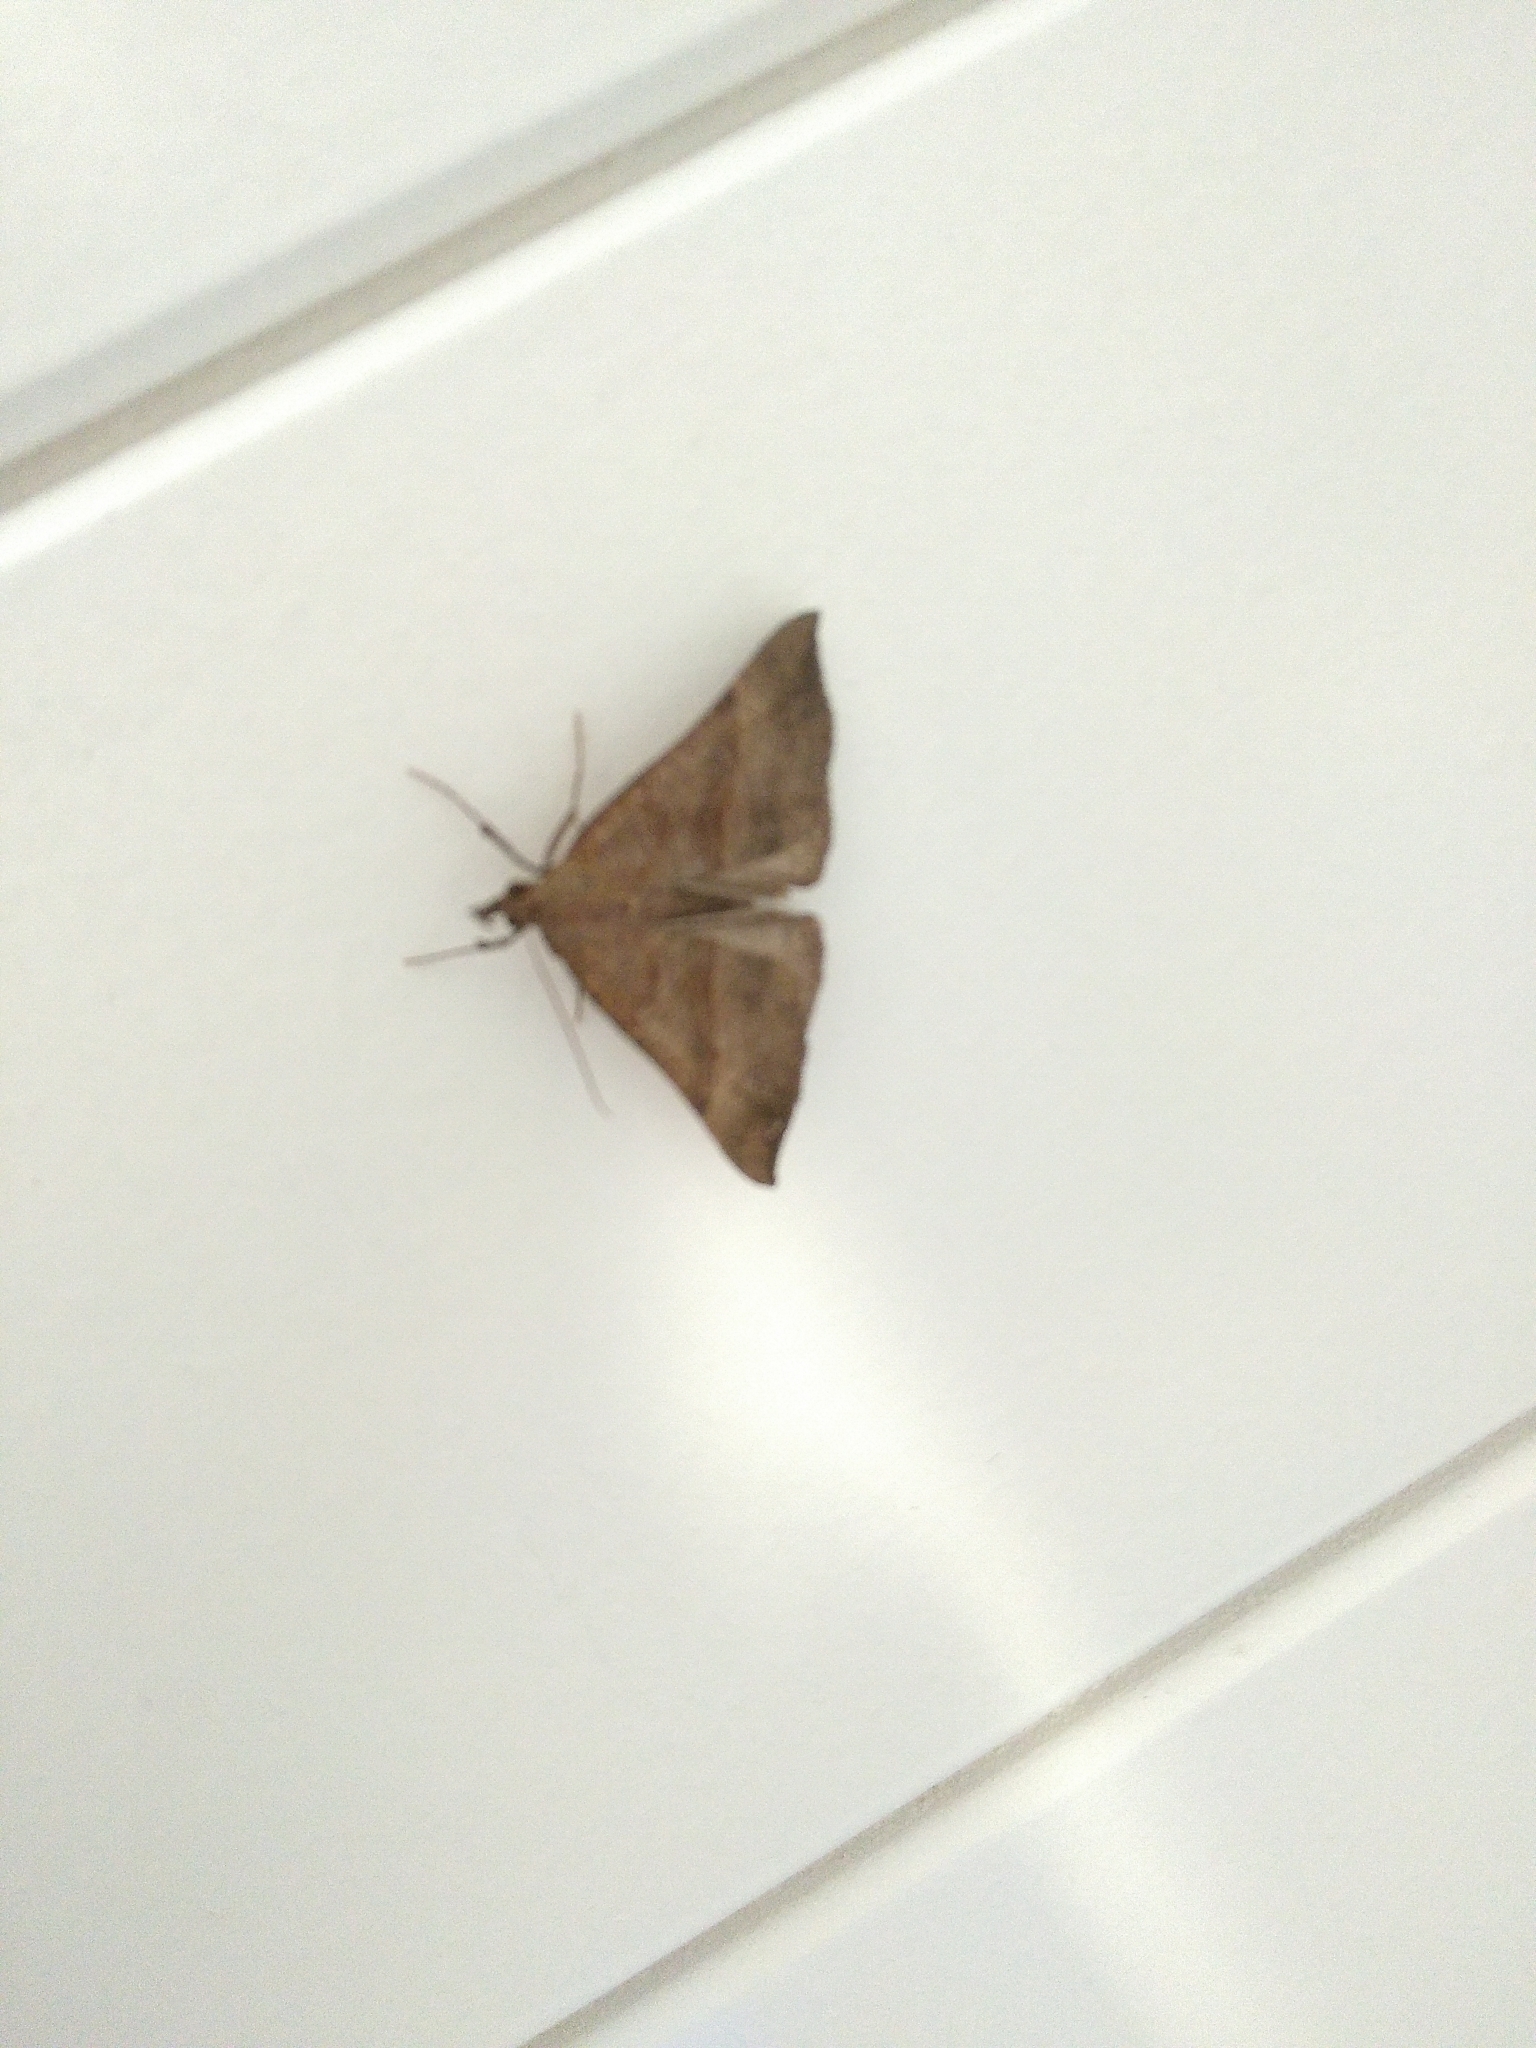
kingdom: Animalia
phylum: Arthropoda
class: Insecta
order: Lepidoptera
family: Erebidae
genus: Hypena
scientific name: Hypena proboscidalis
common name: Snout
